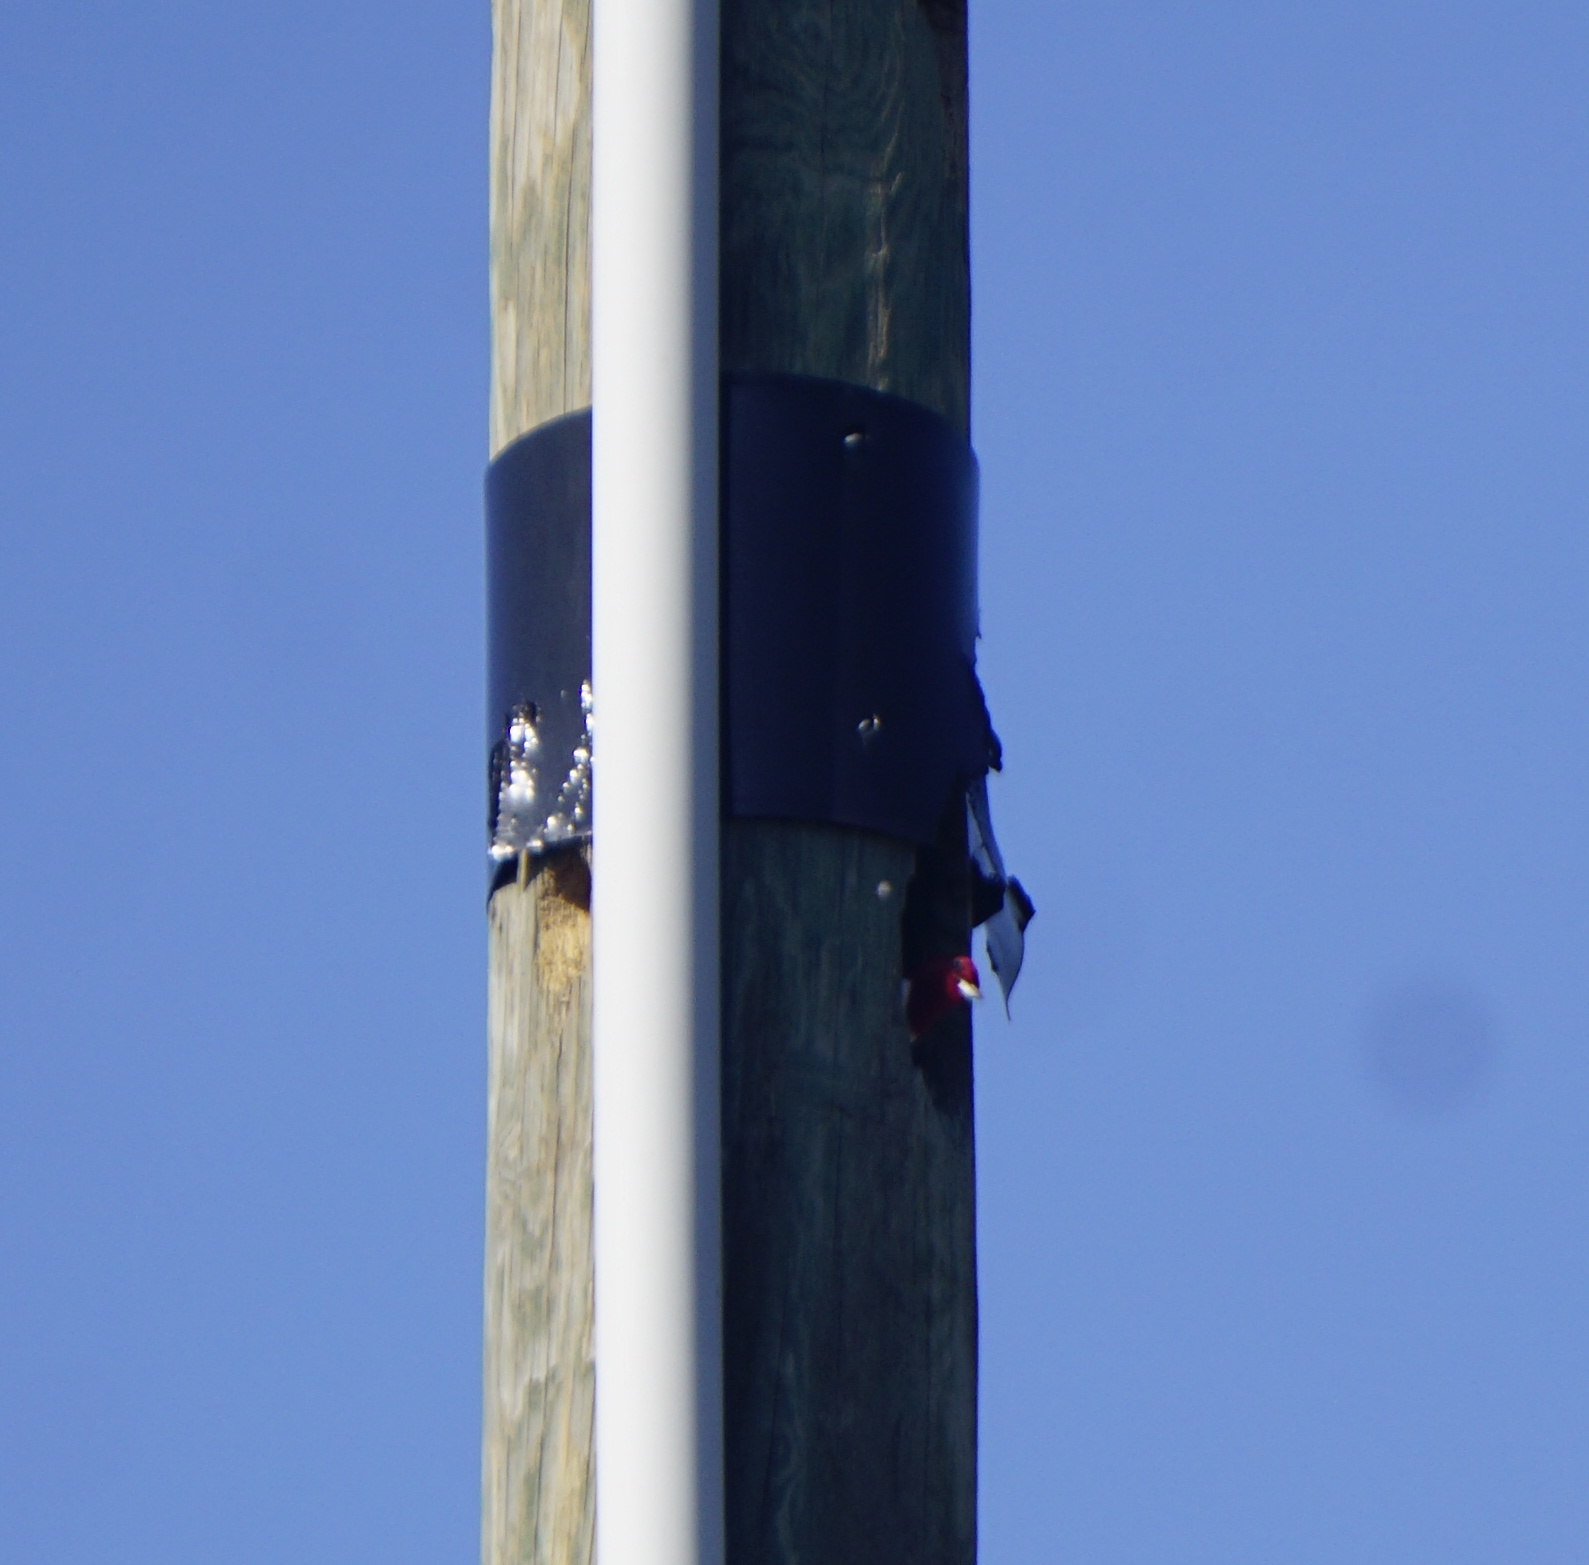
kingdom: Animalia
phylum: Chordata
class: Aves
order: Piciformes
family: Picidae
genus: Melanerpes
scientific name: Melanerpes erythrocephalus
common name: Red-headed woodpecker
